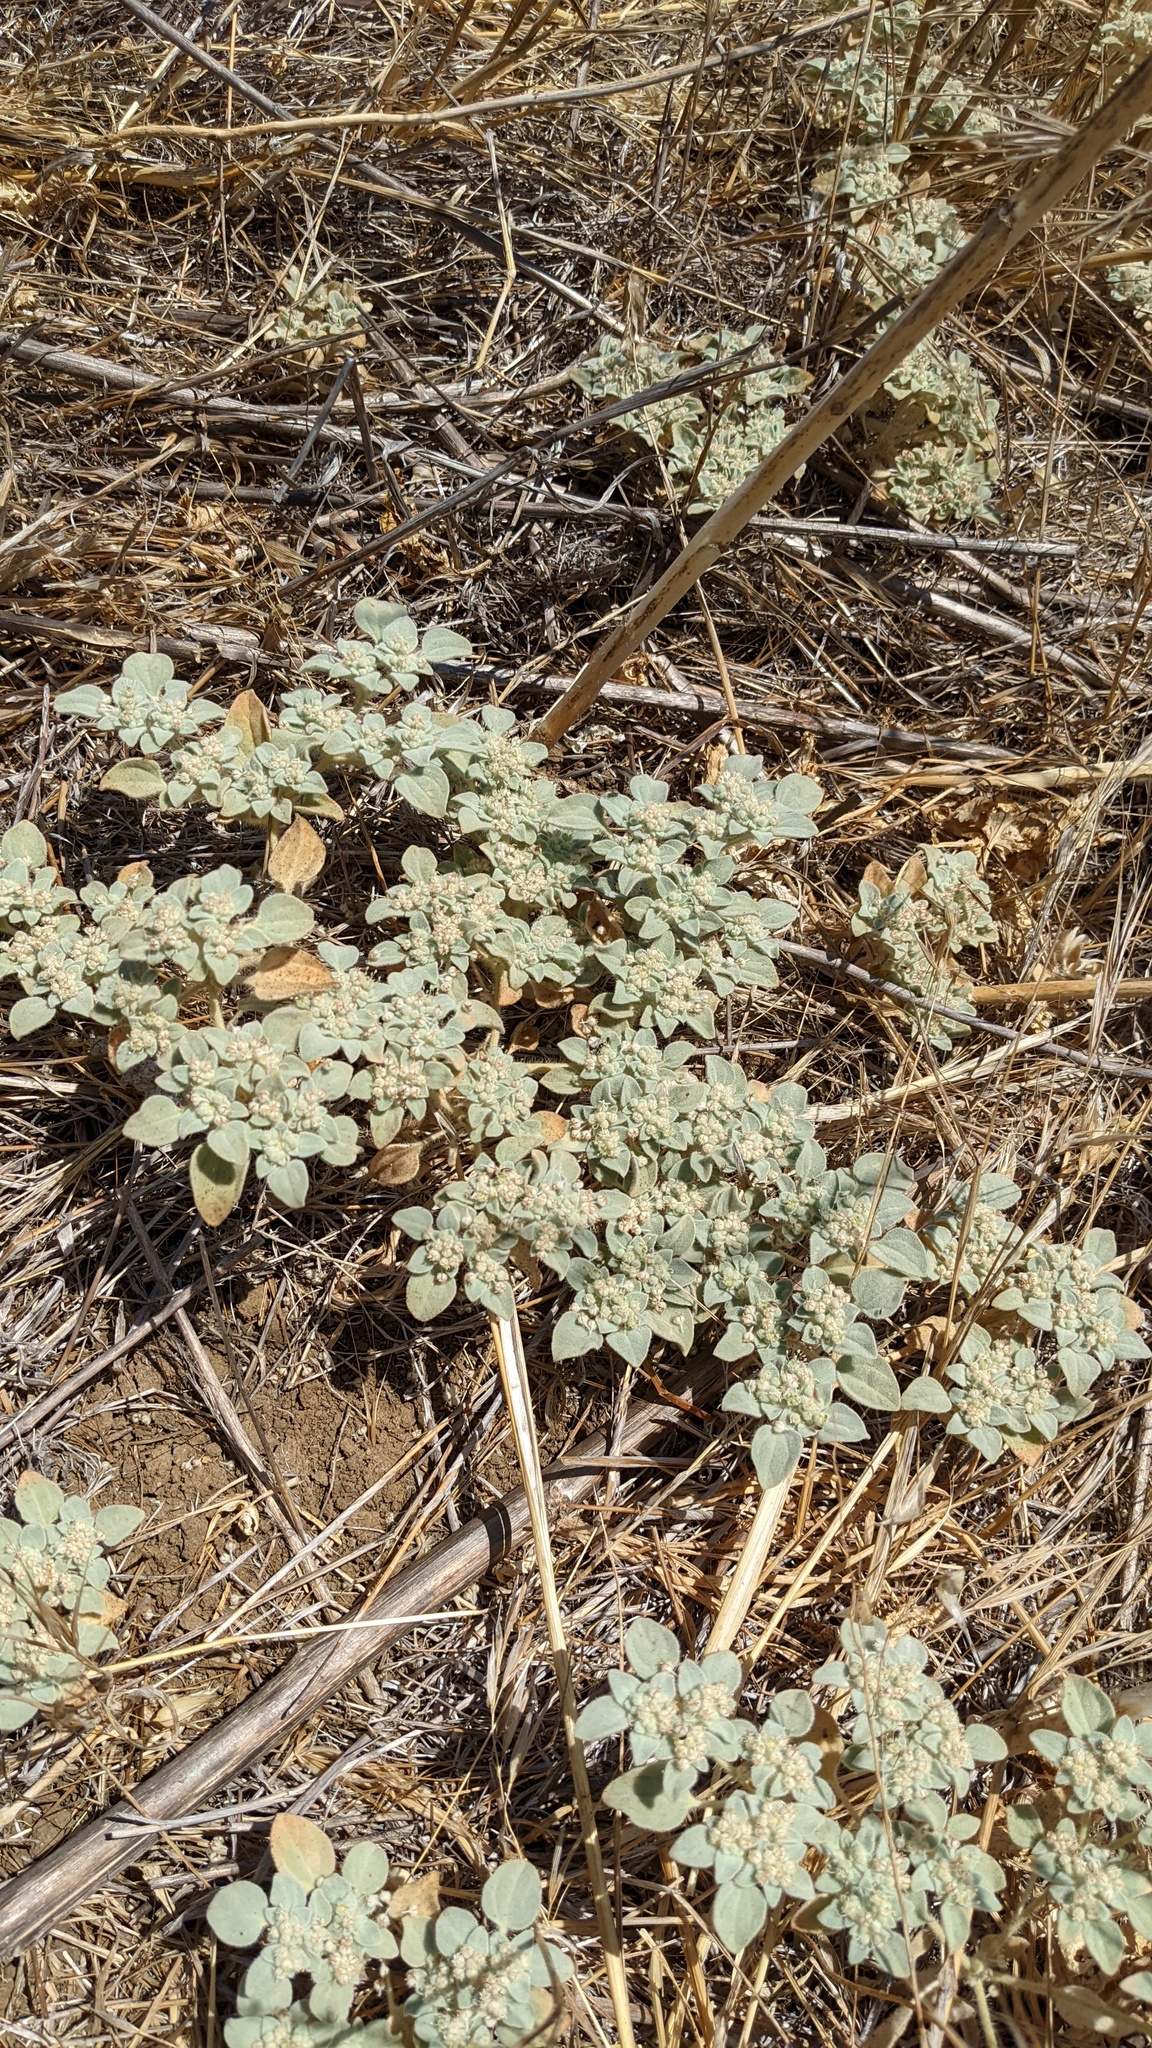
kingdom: Plantae
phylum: Tracheophyta
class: Magnoliopsida
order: Malpighiales
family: Euphorbiaceae
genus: Croton
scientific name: Croton setiger
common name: Dove weed
